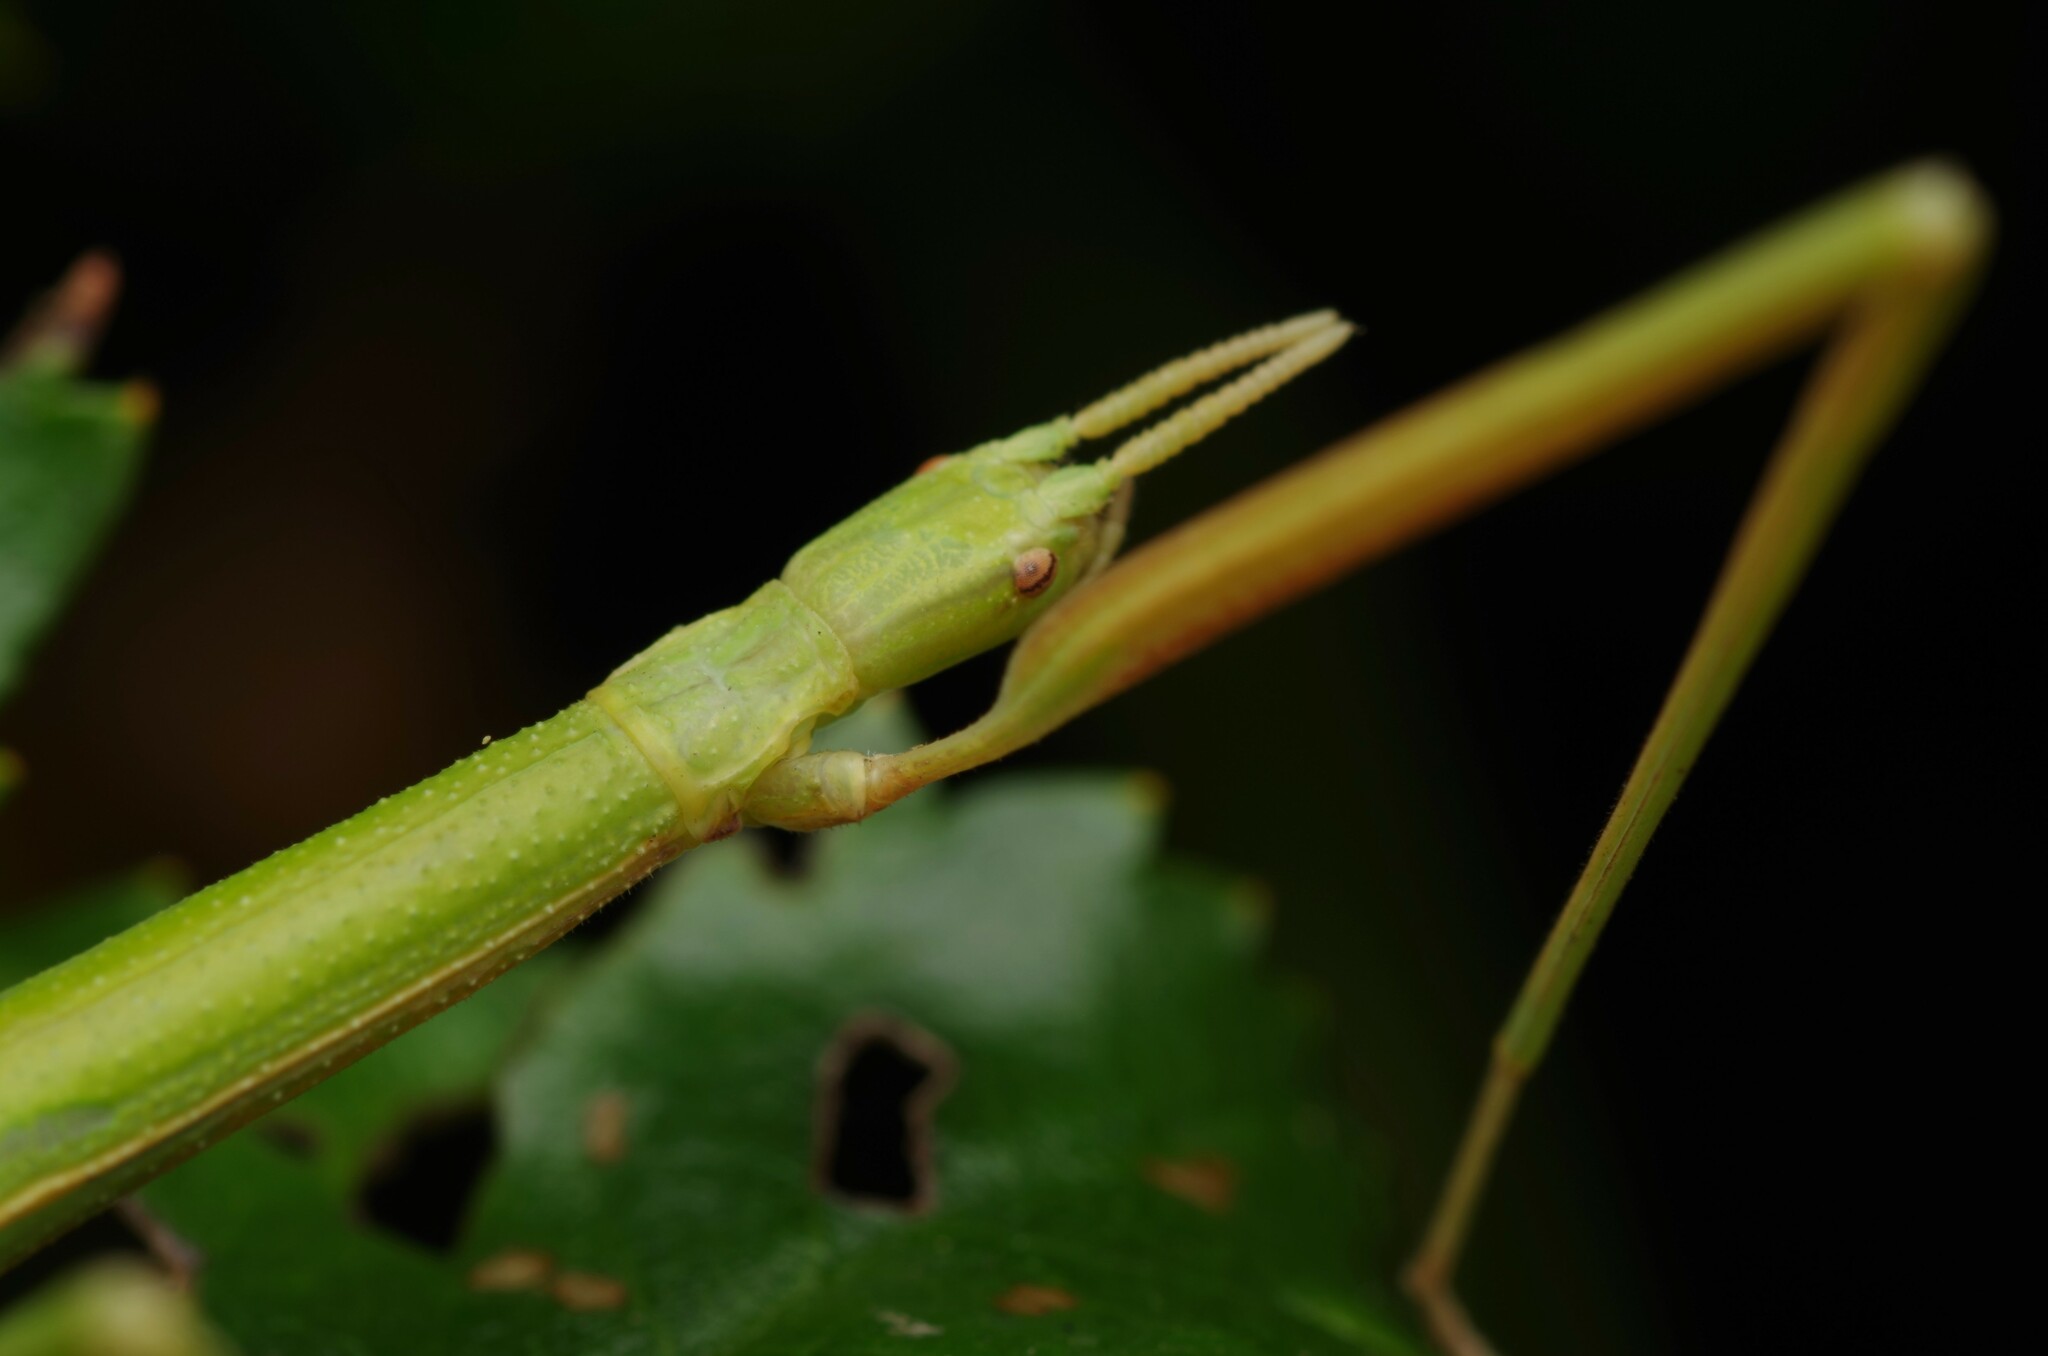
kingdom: Animalia
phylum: Arthropoda
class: Insecta
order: Phasmida
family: Bacillidae
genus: Clonopsis
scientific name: Clonopsis gallica
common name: French stick insect
